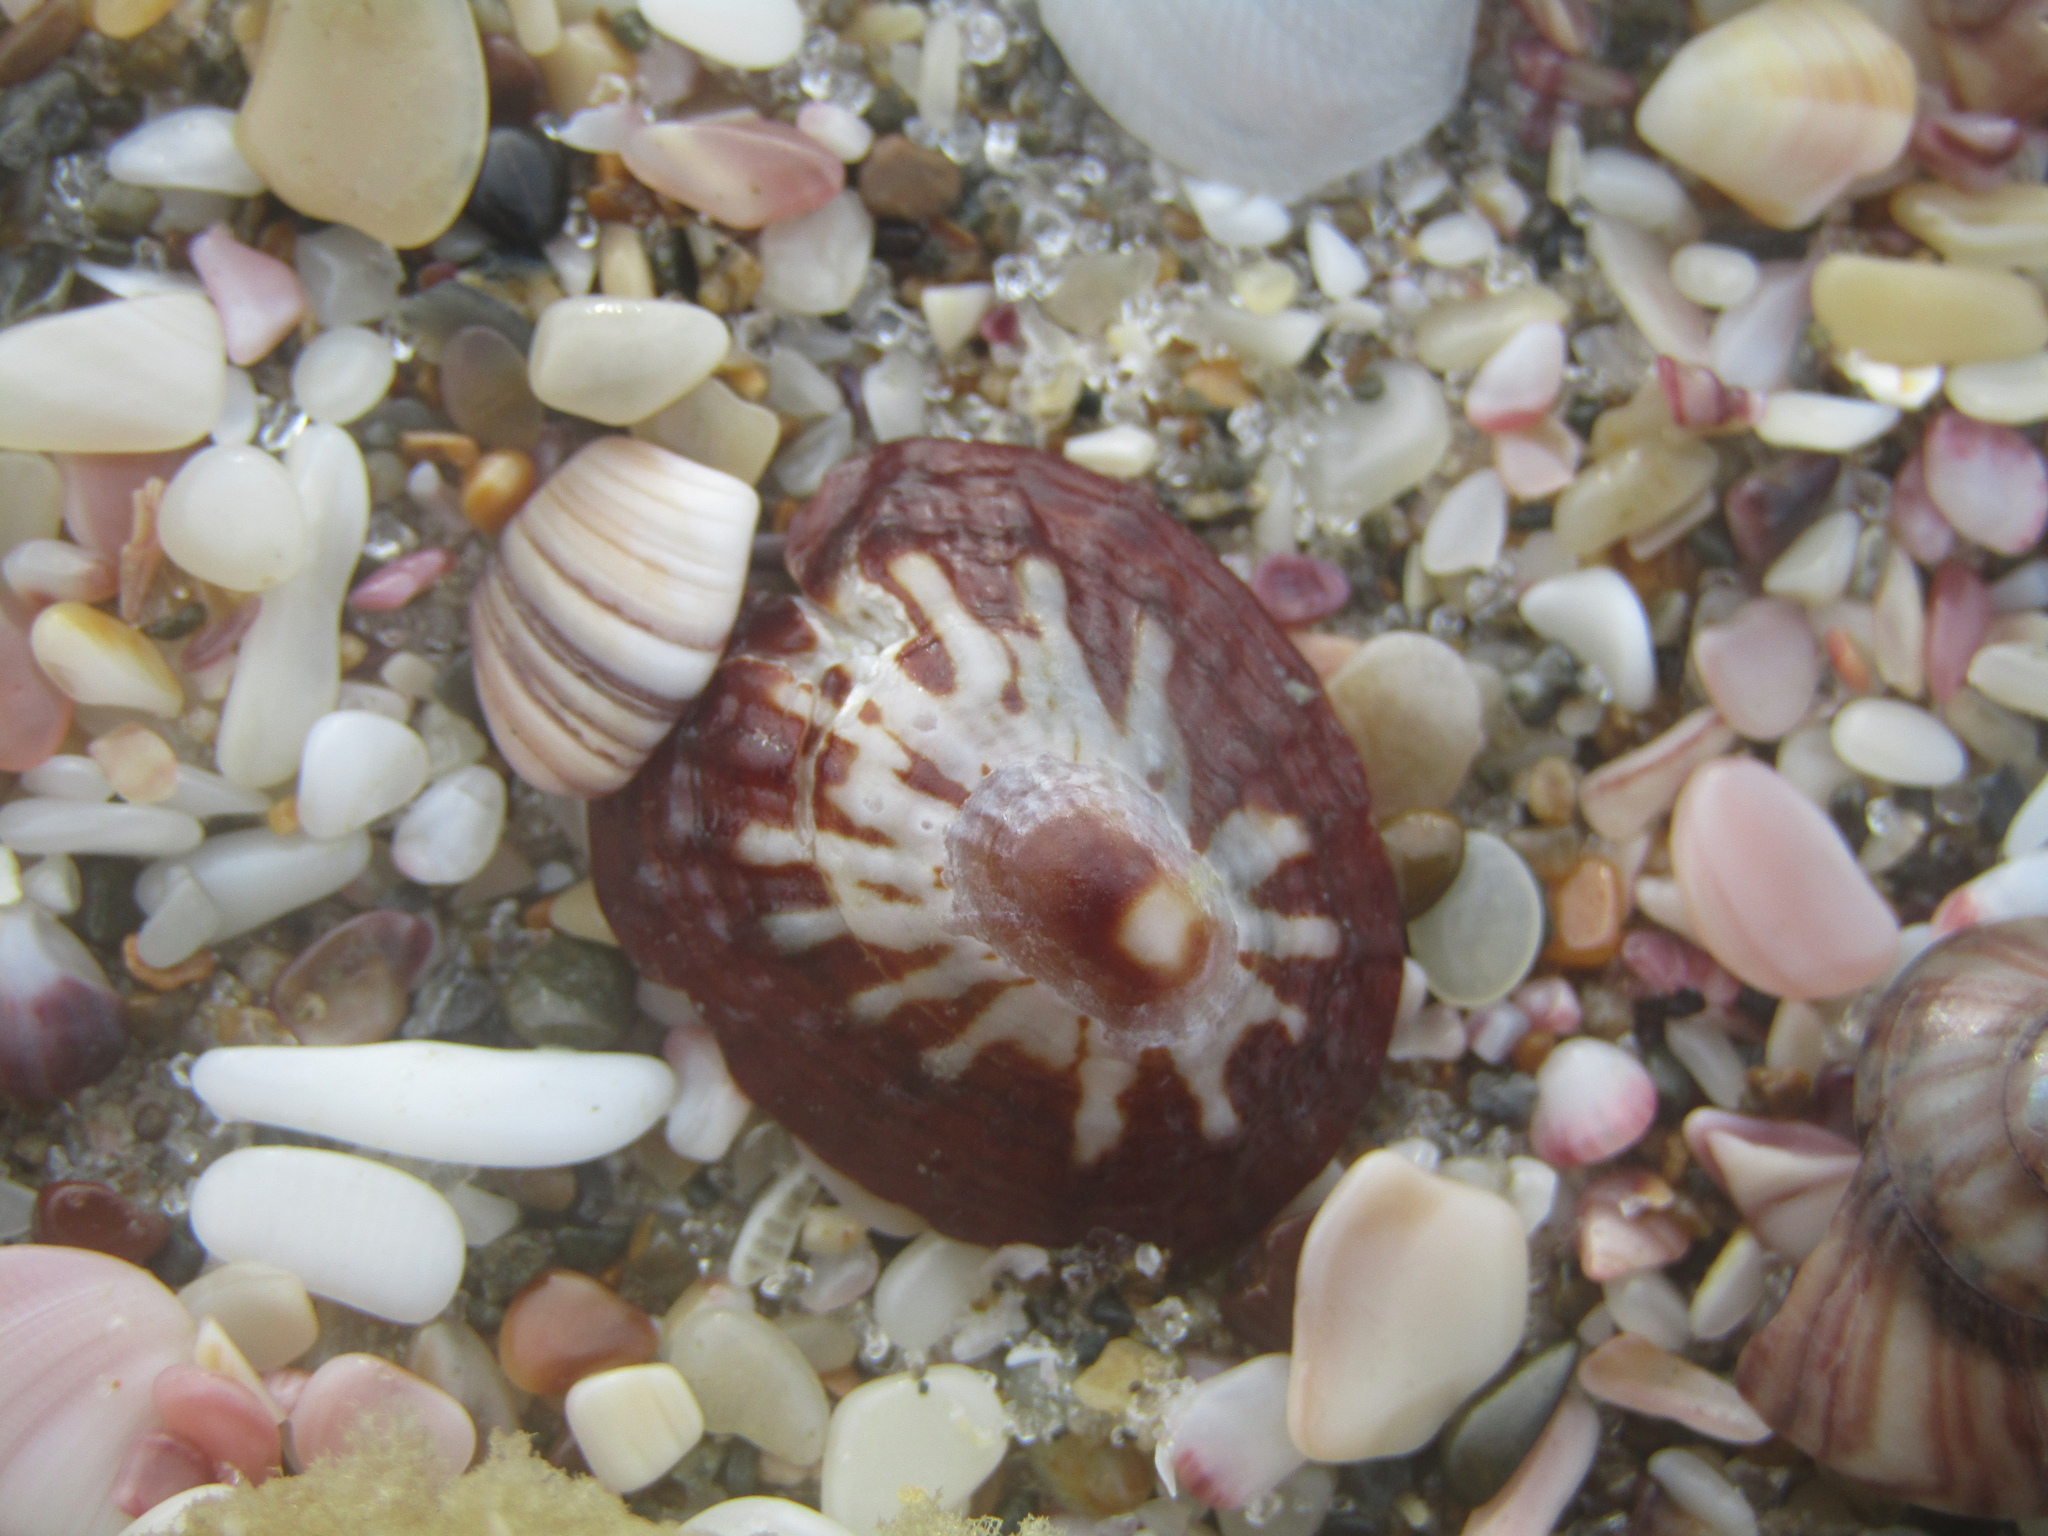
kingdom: Animalia
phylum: Mollusca
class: Gastropoda
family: Nacellidae
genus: Cellana
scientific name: Cellana stellifera
